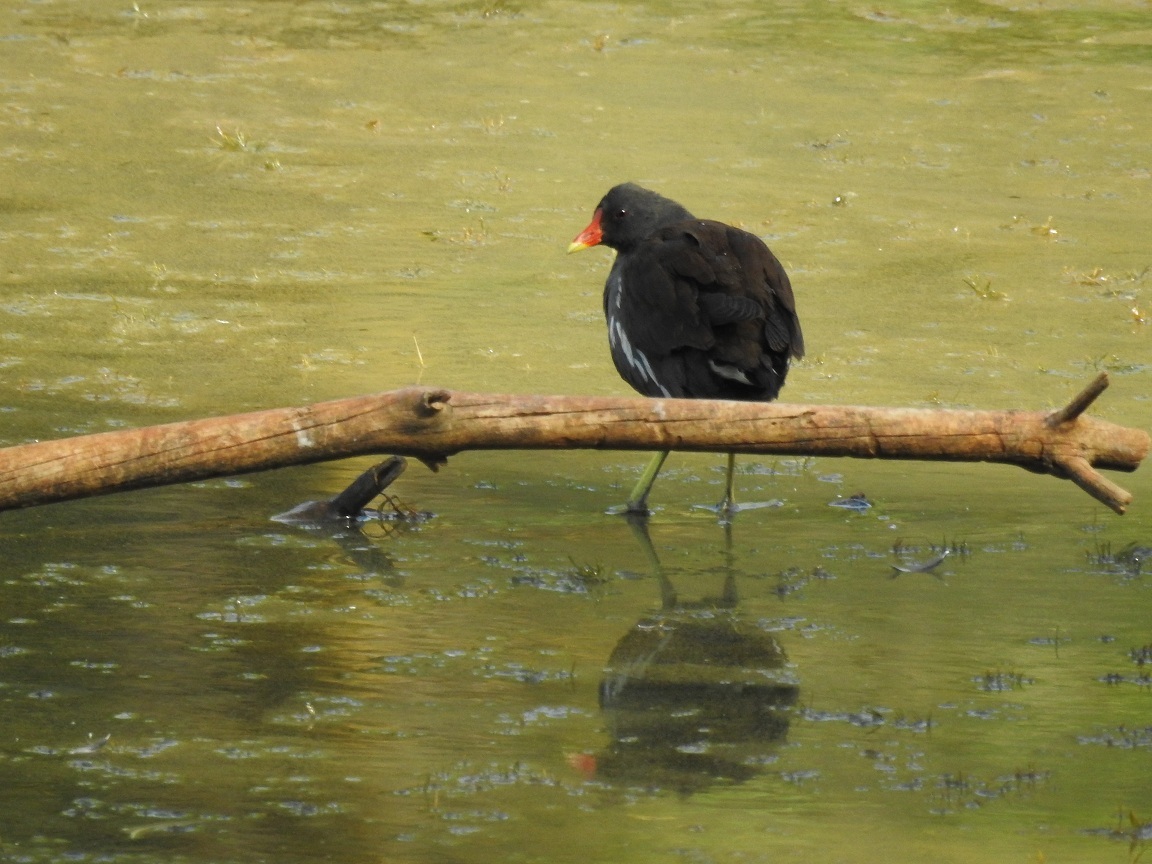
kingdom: Animalia
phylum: Chordata
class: Aves
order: Gruiformes
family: Rallidae
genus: Gallinula
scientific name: Gallinula chloropus
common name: Common moorhen
